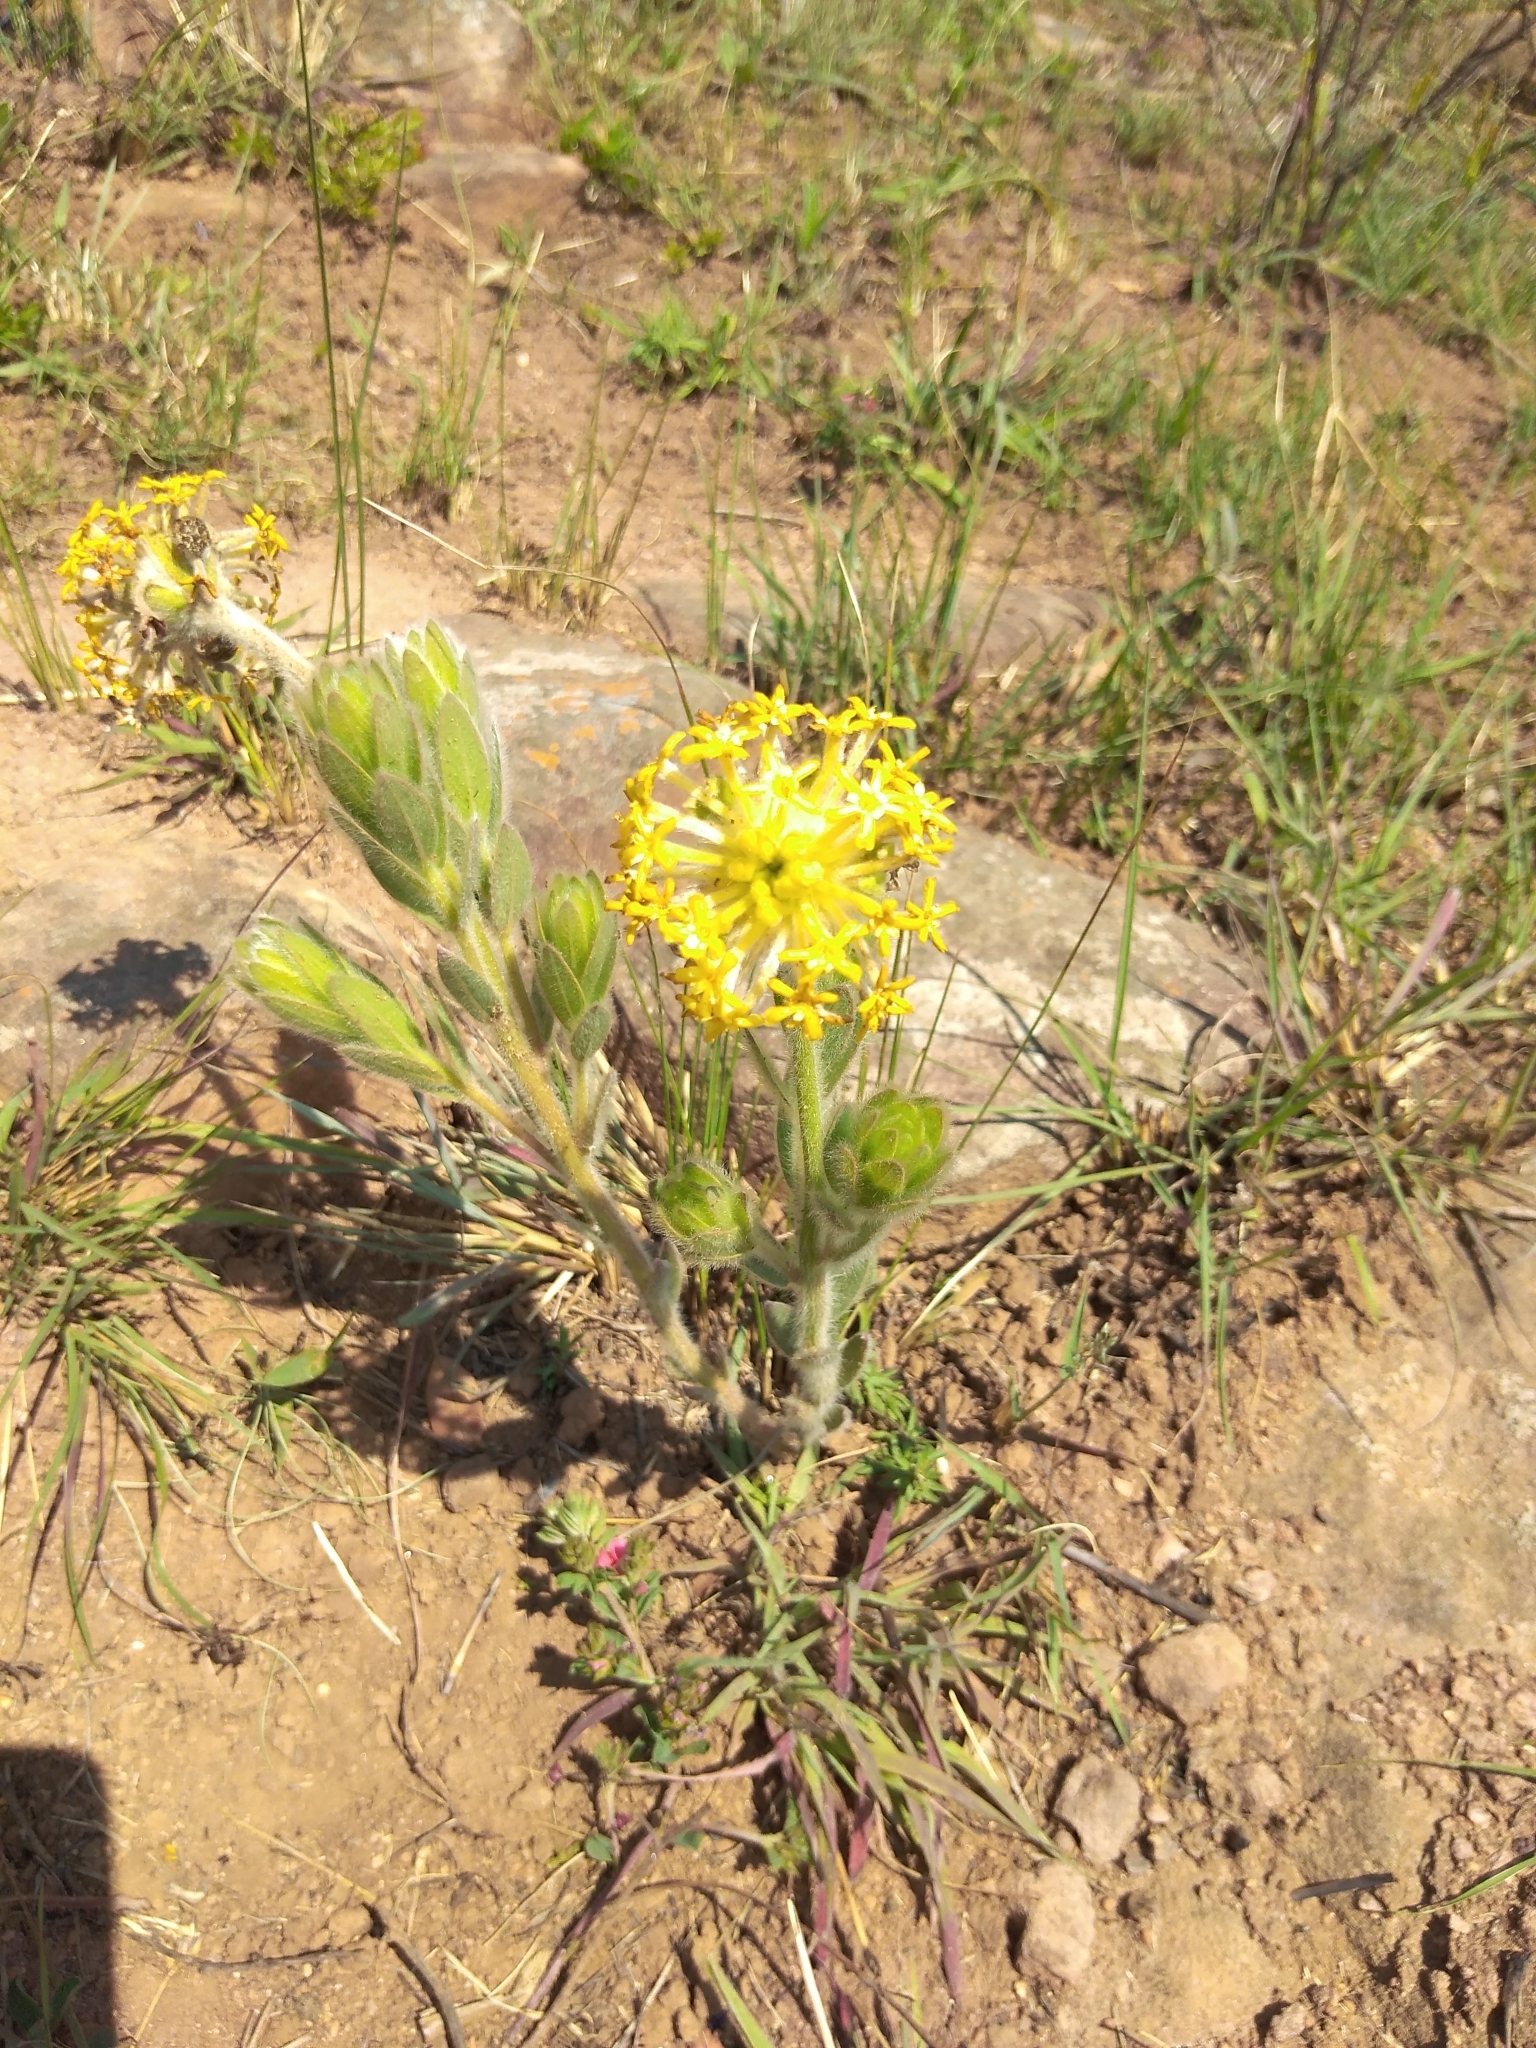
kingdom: Plantae
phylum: Tracheophyta
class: Magnoliopsida
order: Malvales
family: Thymelaeaceae
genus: Gnidia
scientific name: Gnidia kraussiana
